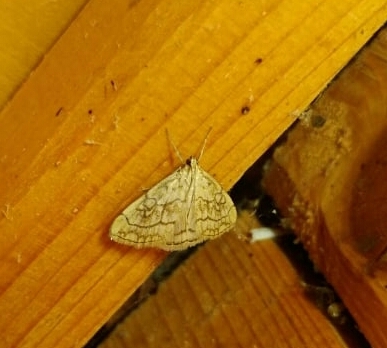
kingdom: Animalia
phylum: Arthropoda
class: Insecta
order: Lepidoptera
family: Crambidae
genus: Evergestis
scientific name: Evergestis pallidata
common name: Chequered pearl
